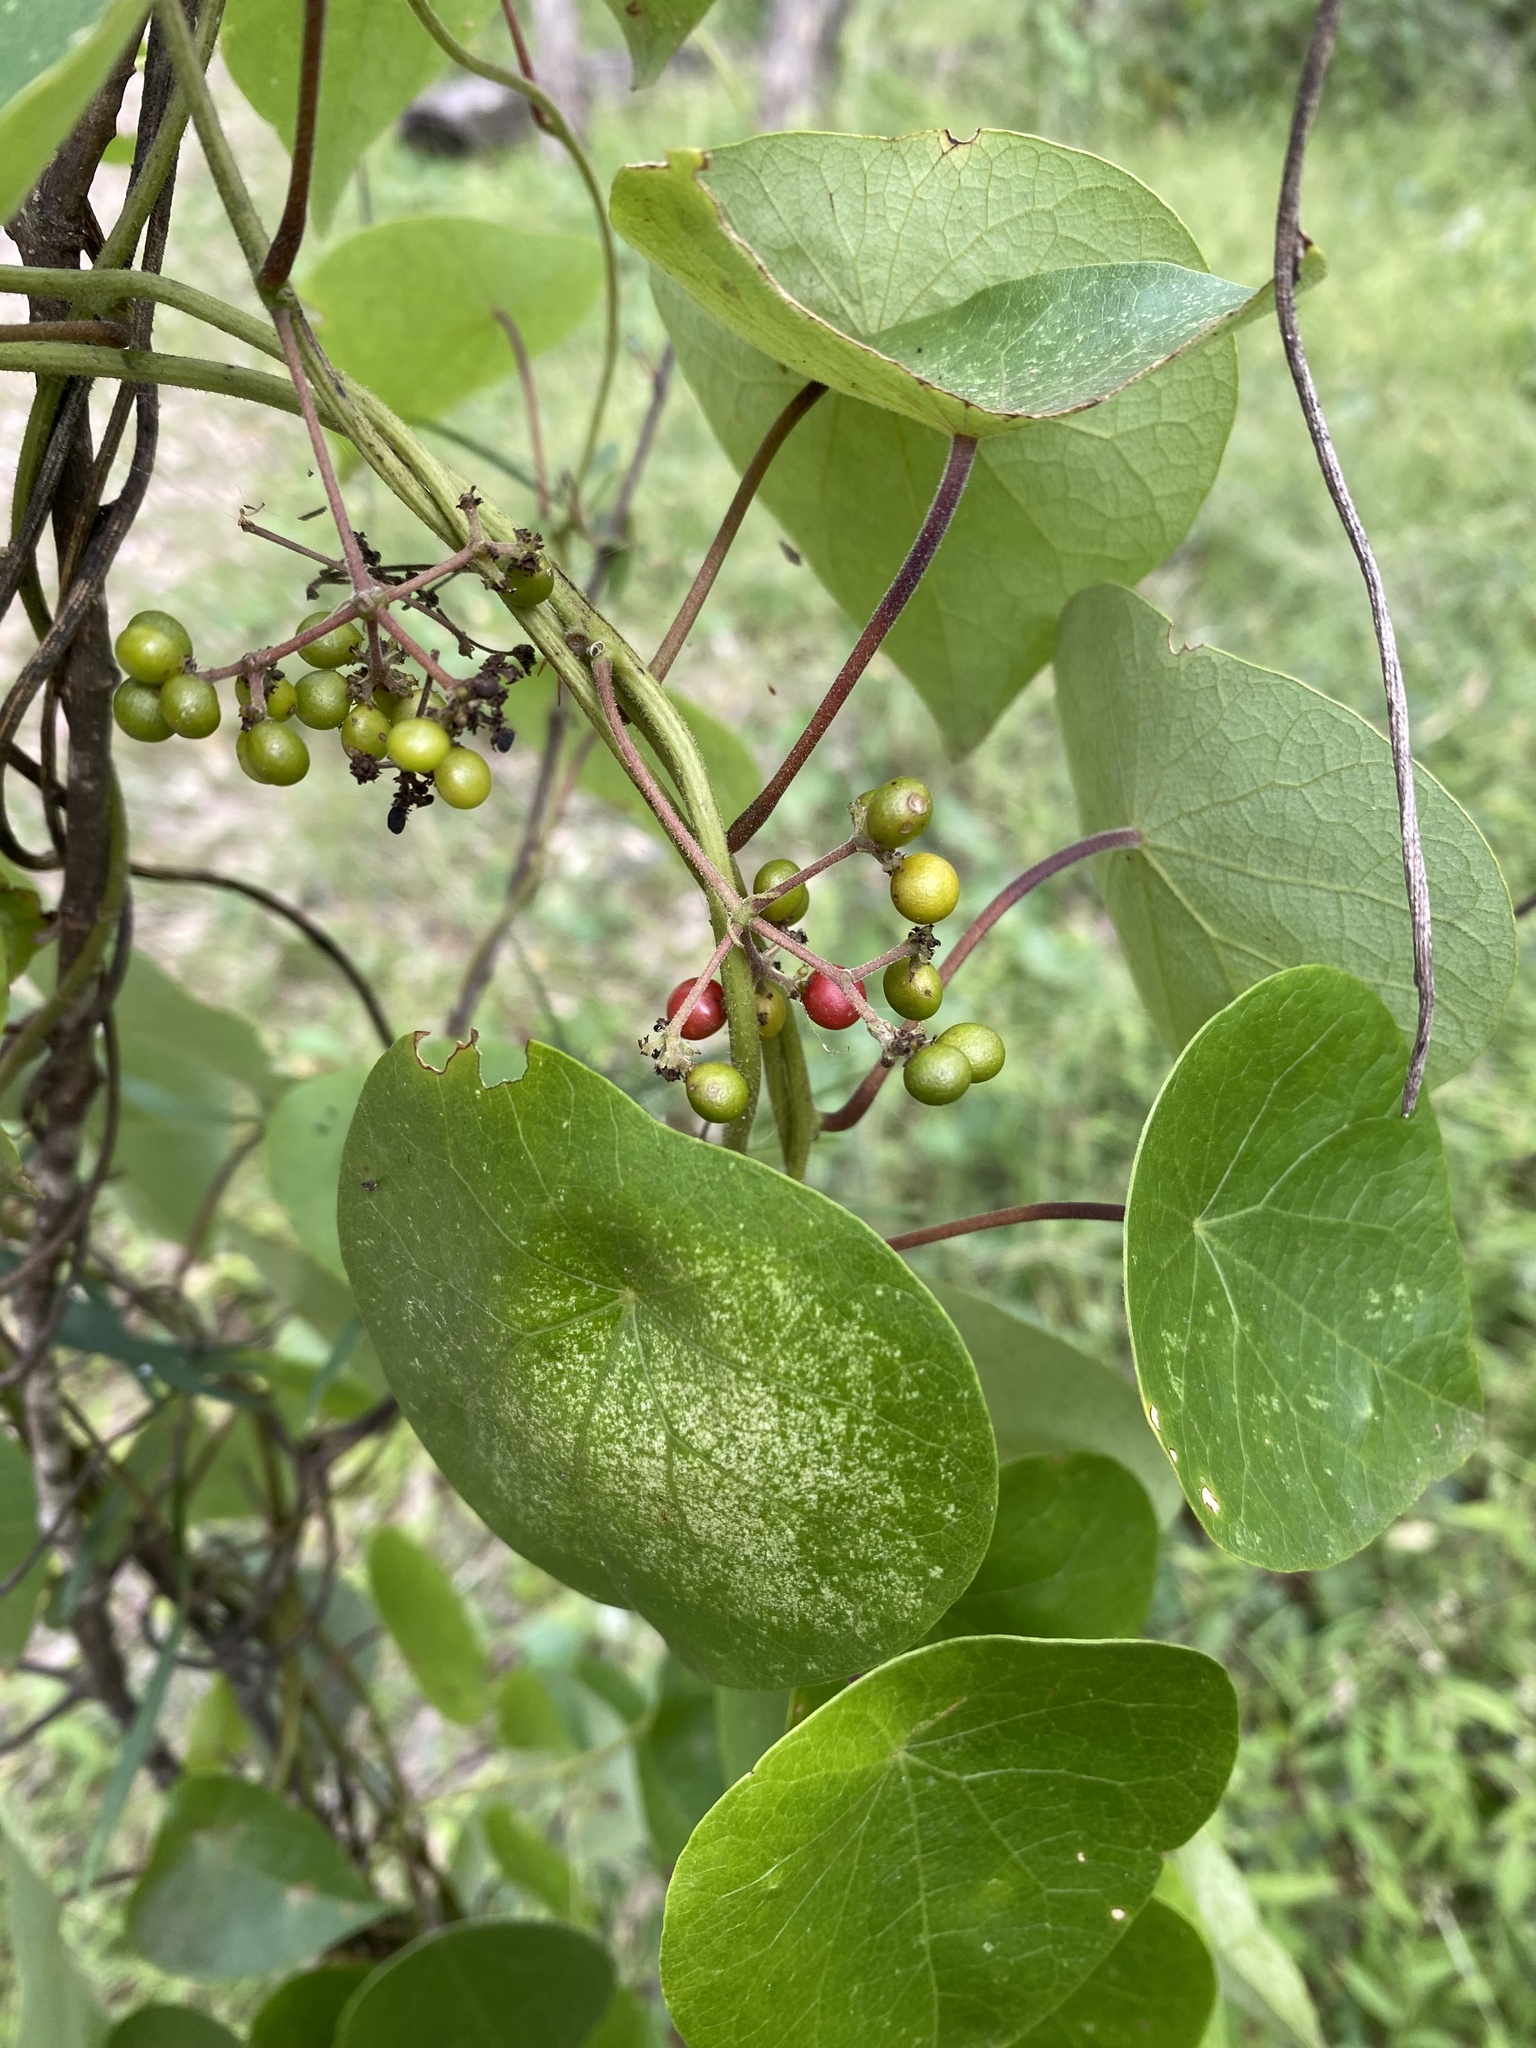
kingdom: Plantae
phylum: Tracheophyta
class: Magnoliopsida
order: Ranunculales
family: Menispermaceae
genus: Stephania
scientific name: Stephania japonica
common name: Snake vine
